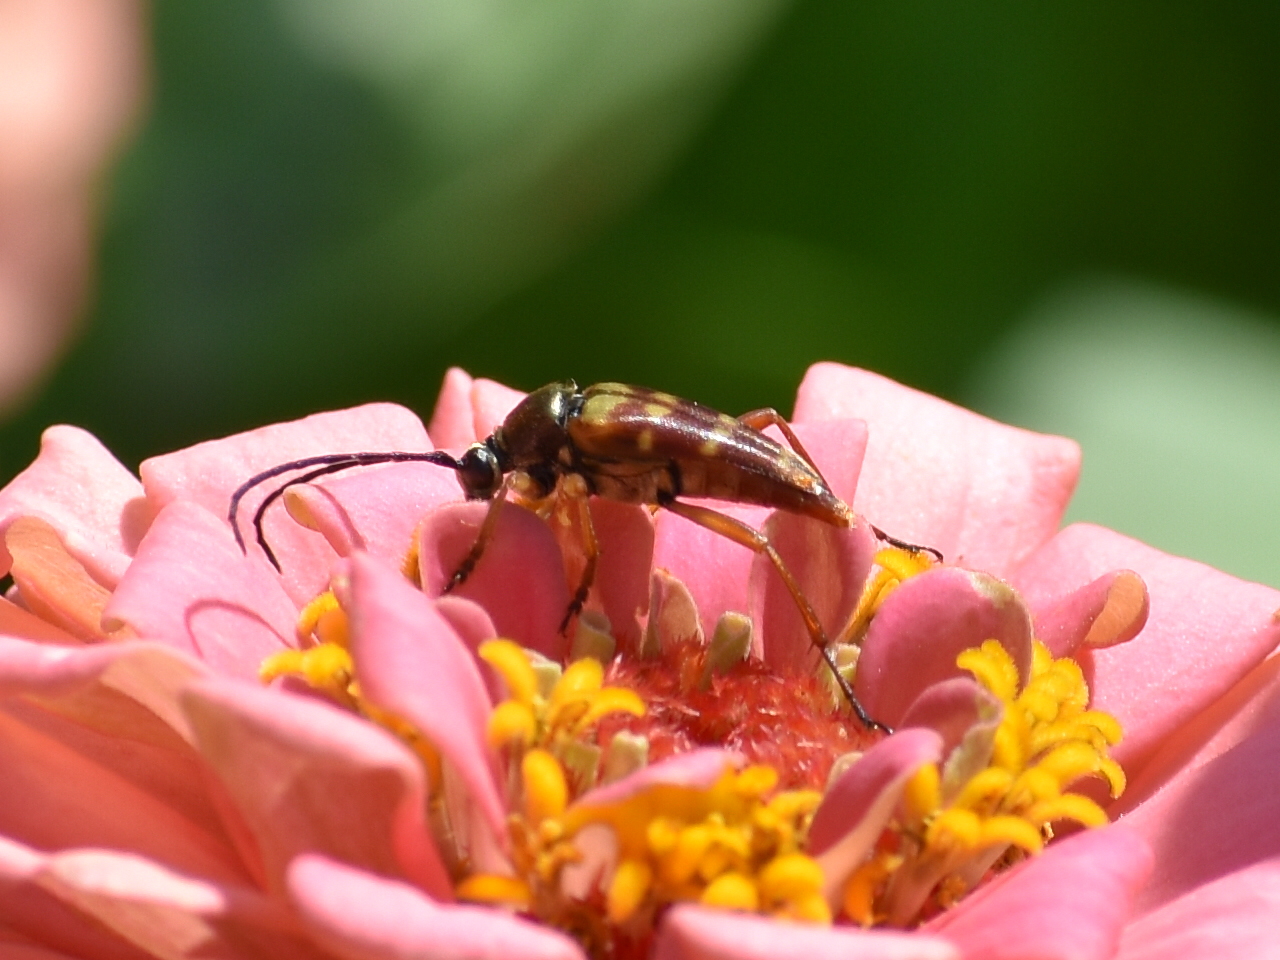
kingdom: Animalia
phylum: Arthropoda
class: Insecta
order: Coleoptera
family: Cerambycidae
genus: Typocerus
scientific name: Typocerus velutinus
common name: Banded longhorn beetle
